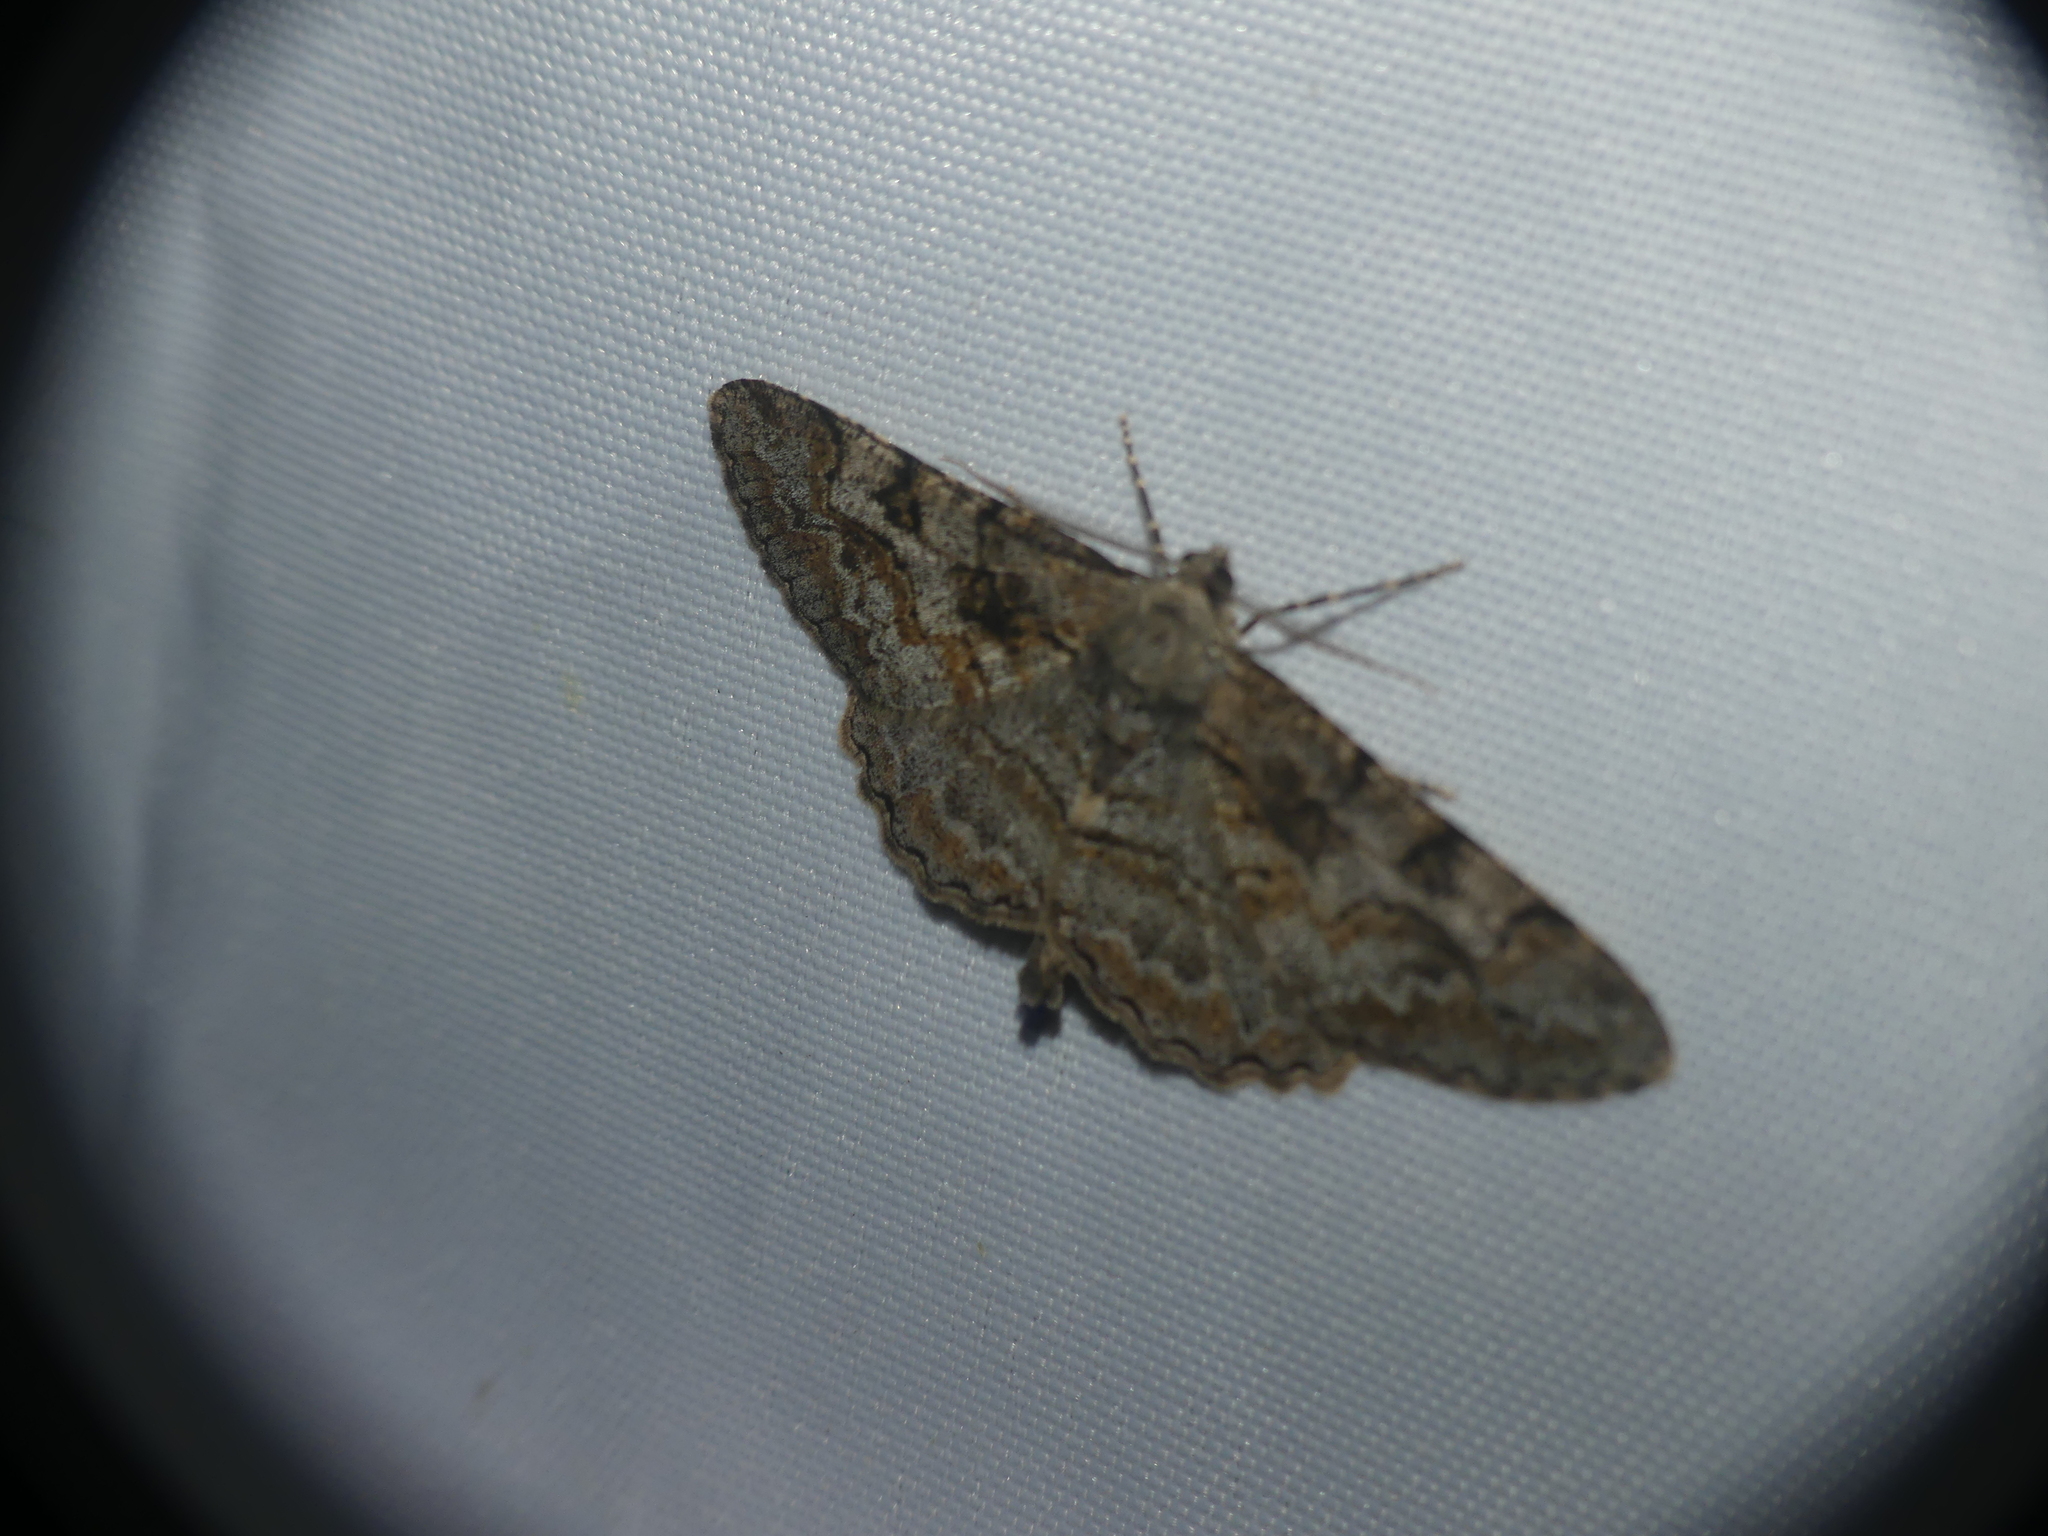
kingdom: Animalia
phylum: Arthropoda
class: Insecta
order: Lepidoptera
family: Geometridae
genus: Alcis
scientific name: Alcis repandata
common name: Mottled beauty
